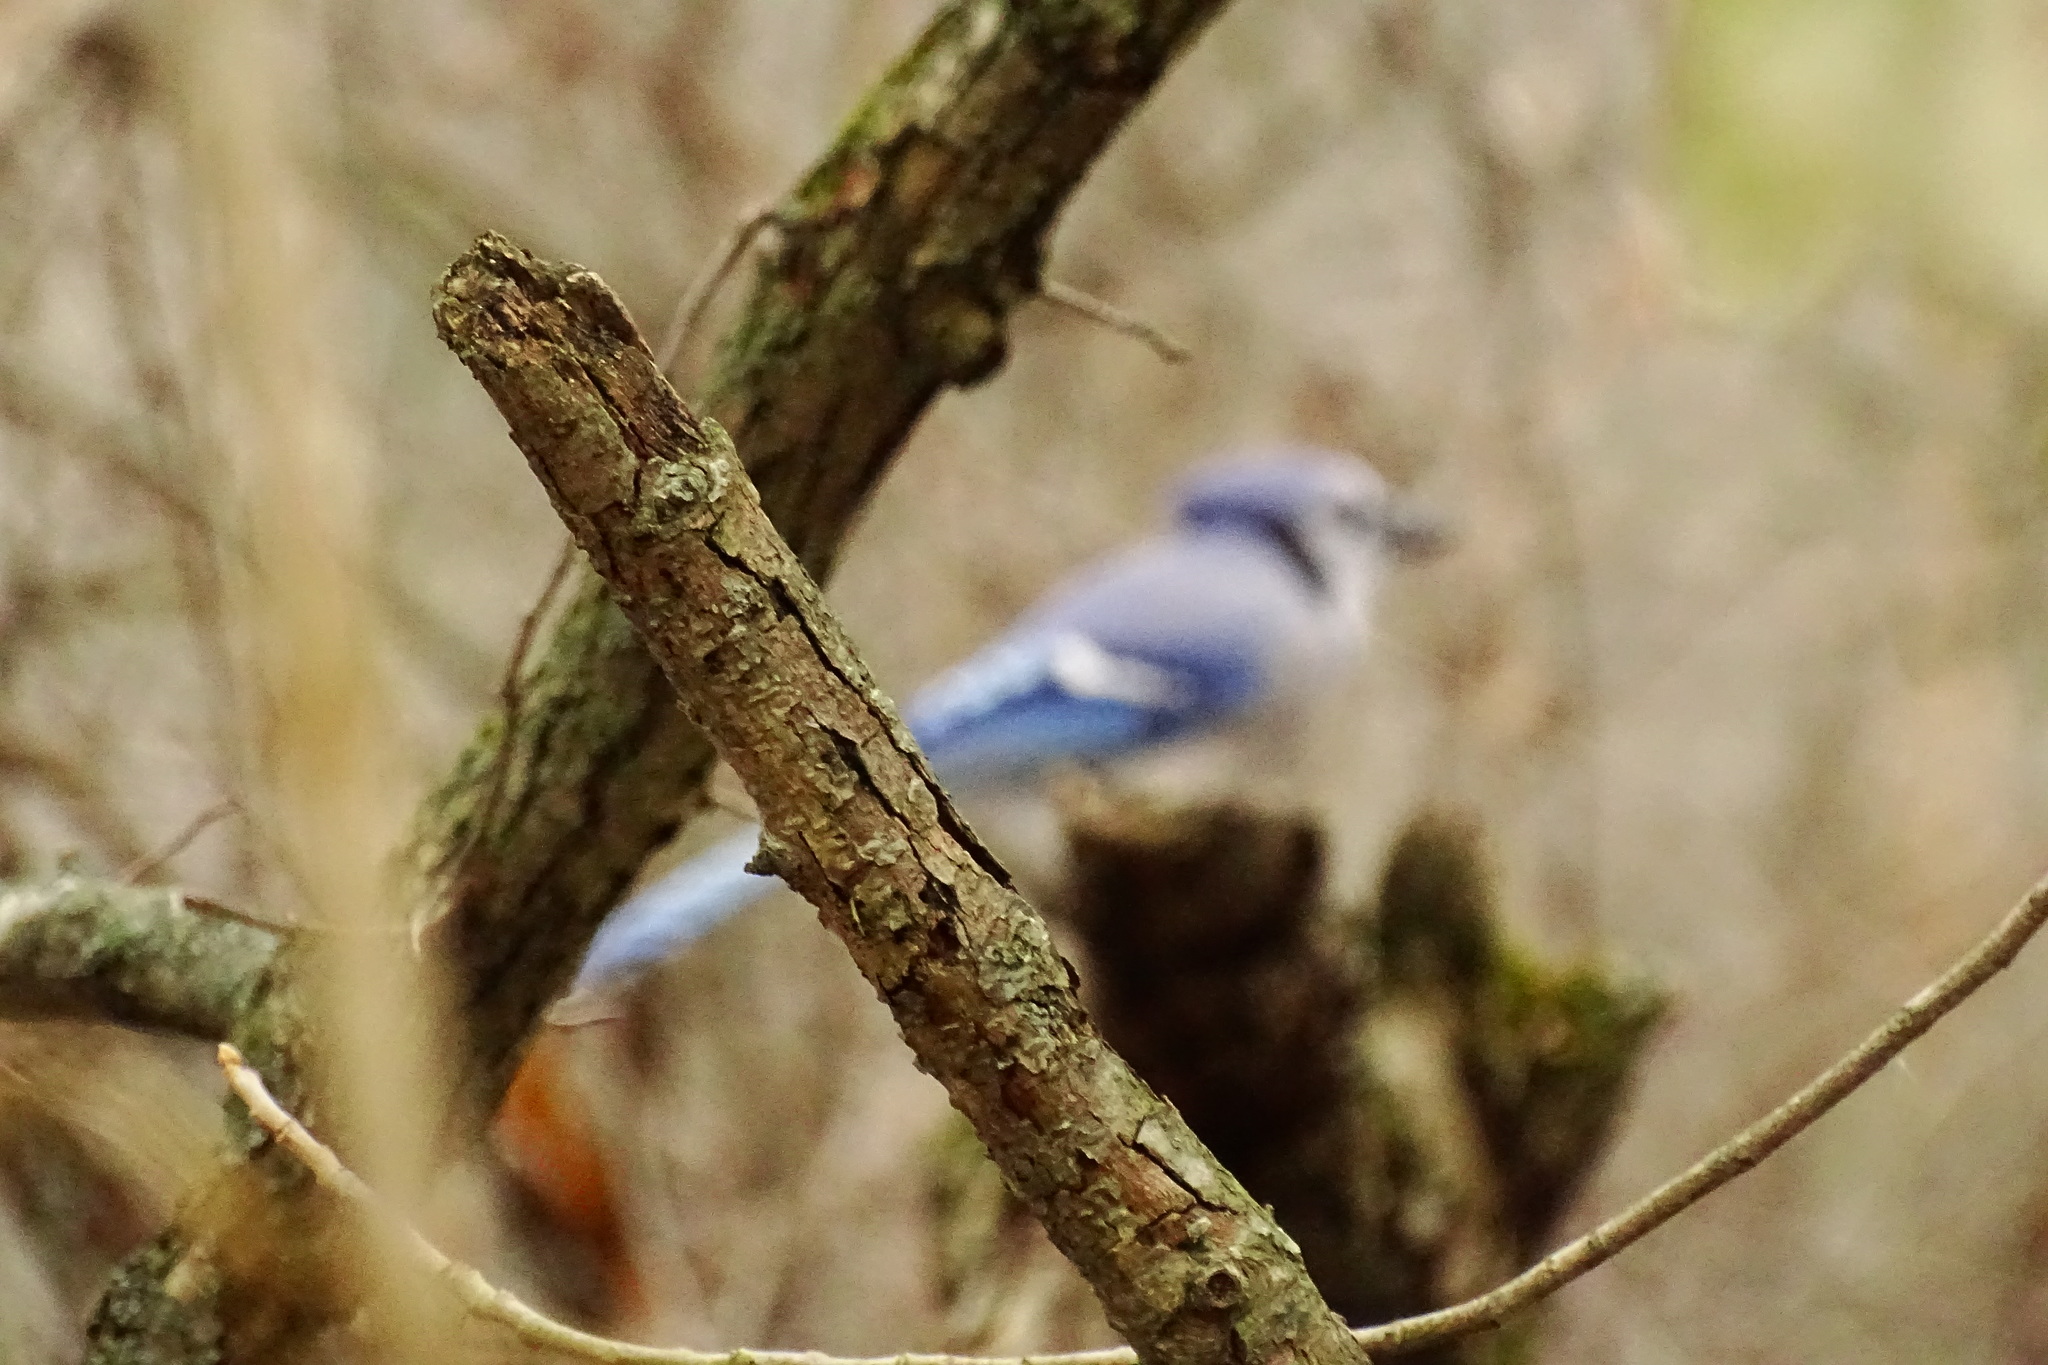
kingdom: Animalia
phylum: Chordata
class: Aves
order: Passeriformes
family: Corvidae
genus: Cyanocitta
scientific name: Cyanocitta cristata
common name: Blue jay
